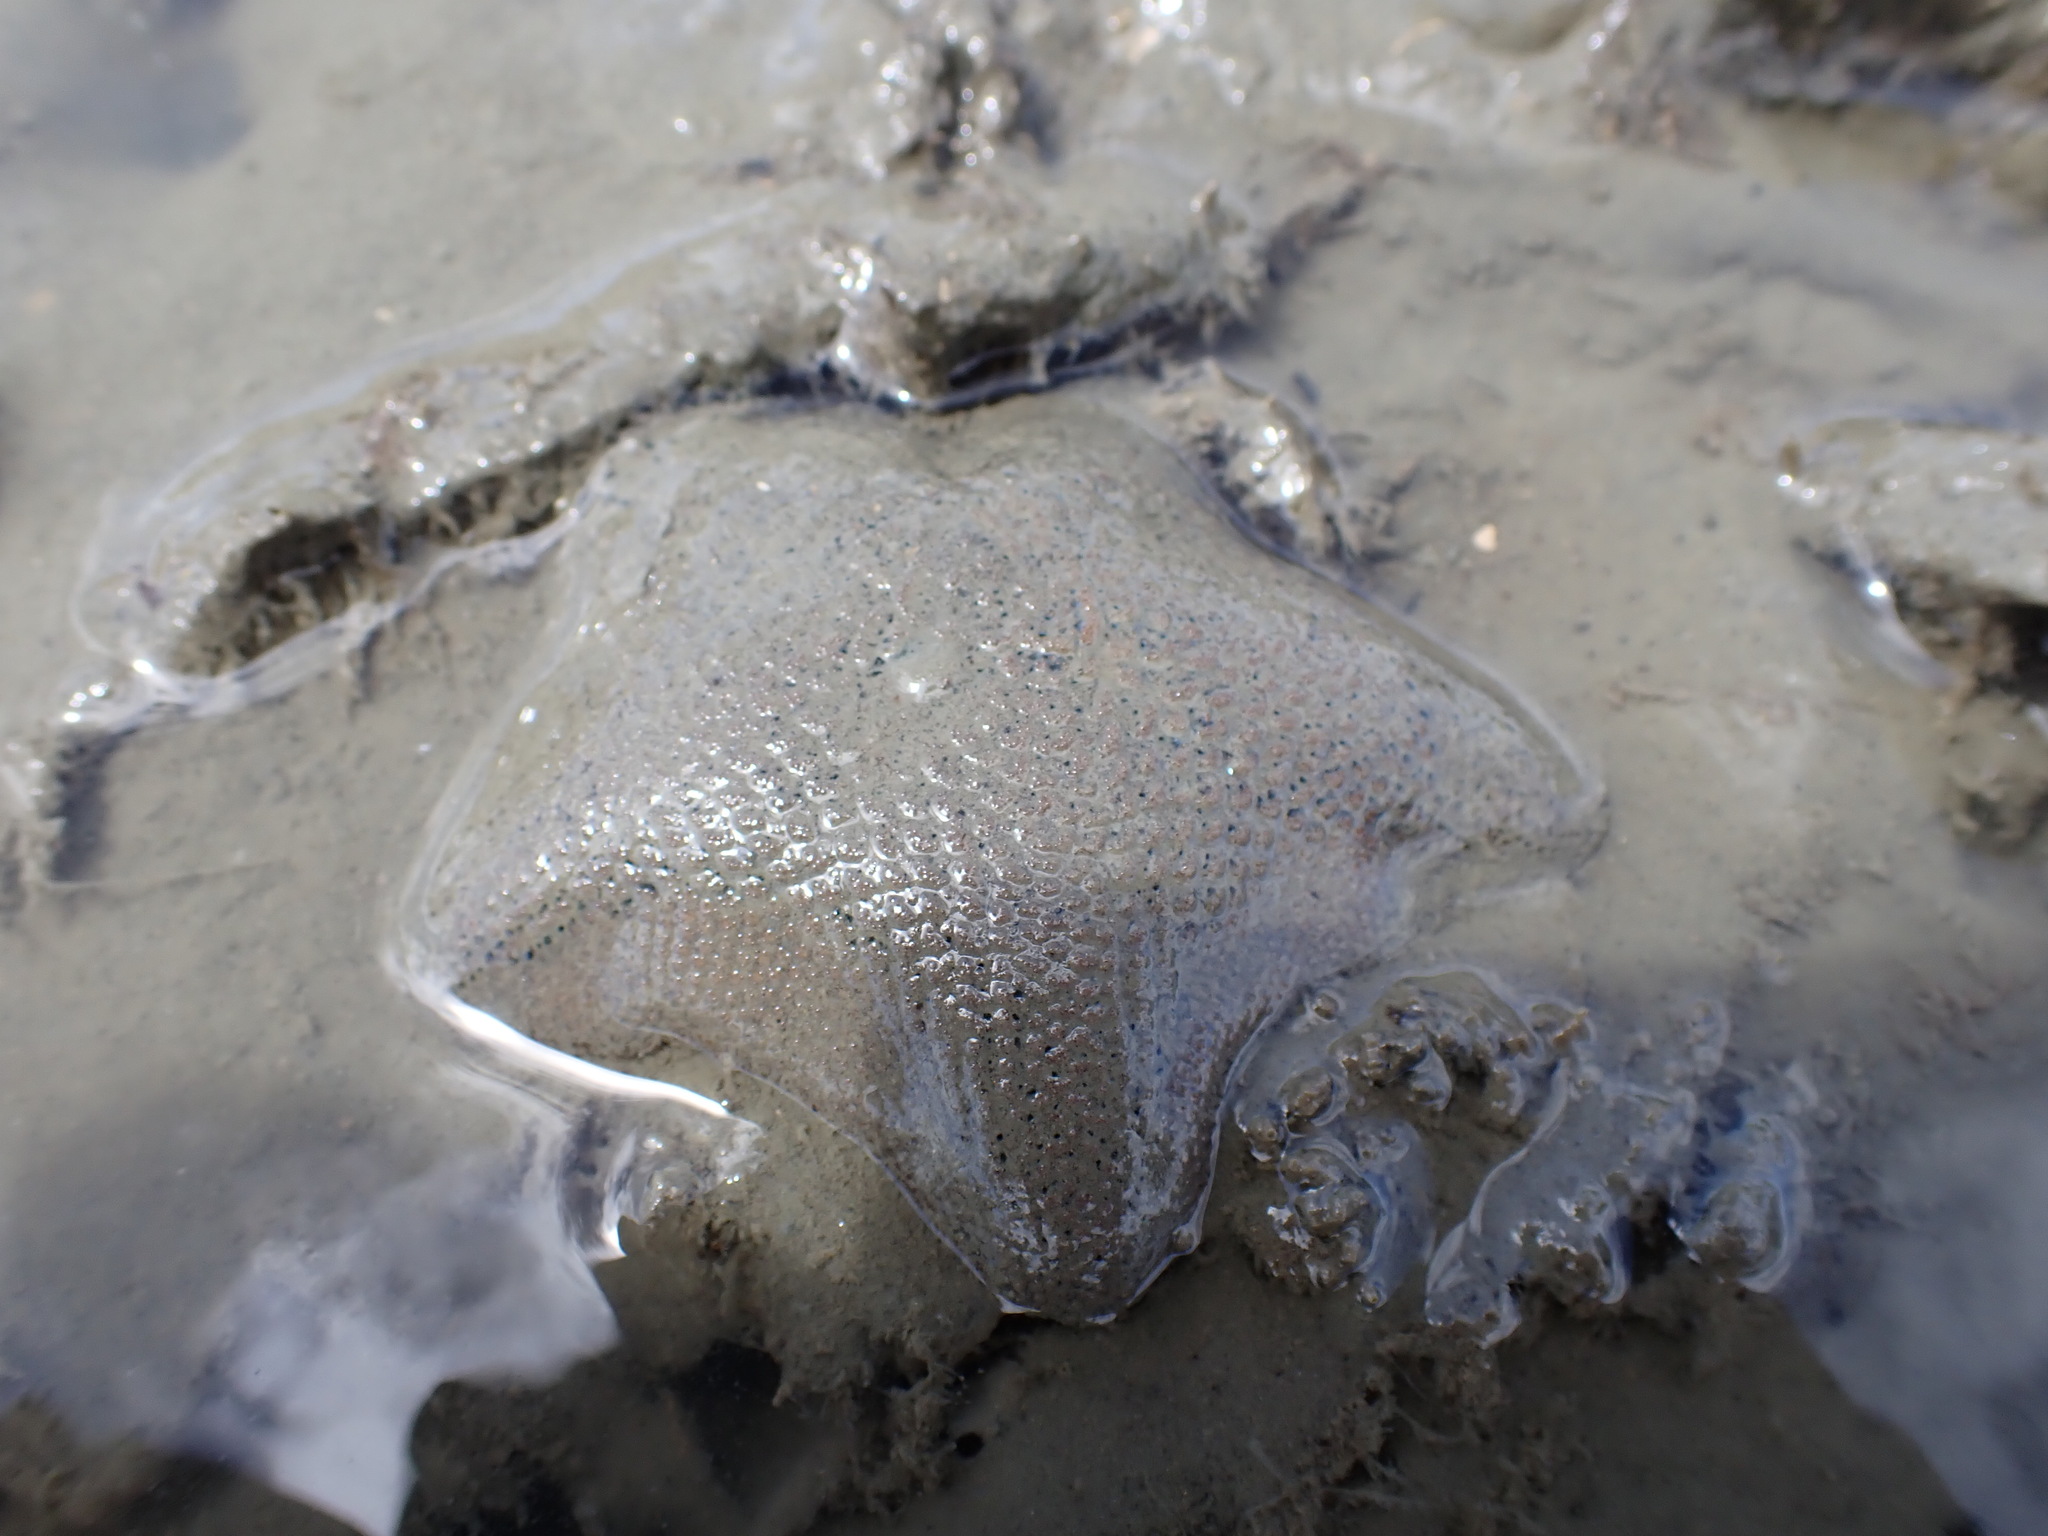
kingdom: Animalia
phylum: Echinodermata
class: Asteroidea
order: Valvatida
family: Asterinidae
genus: Patiriella
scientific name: Patiriella regularis
